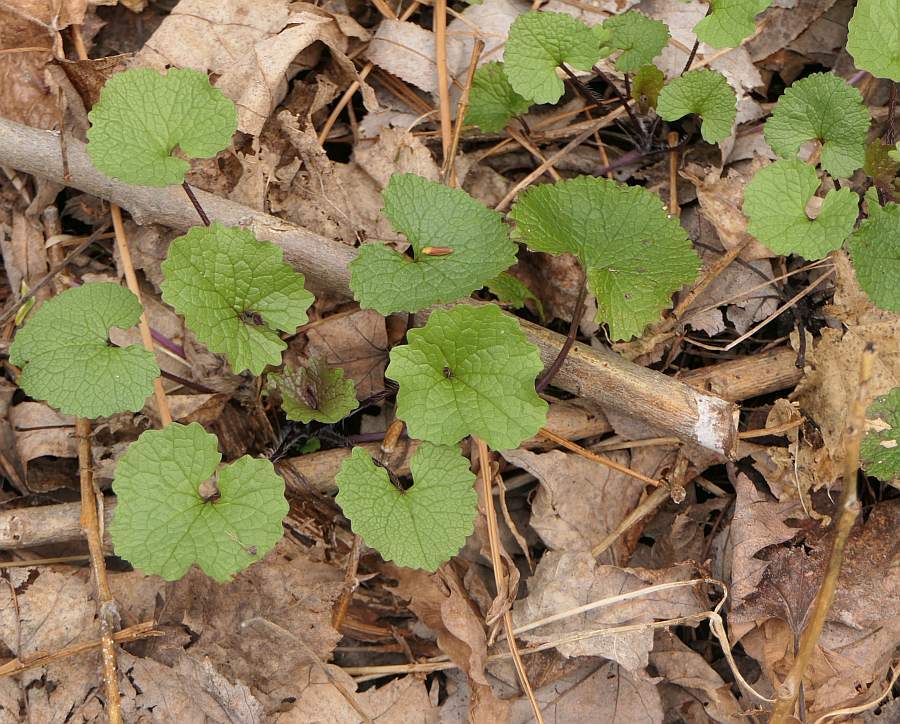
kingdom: Plantae
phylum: Tracheophyta
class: Magnoliopsida
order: Brassicales
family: Brassicaceae
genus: Alliaria
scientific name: Alliaria petiolata
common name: Garlic mustard
